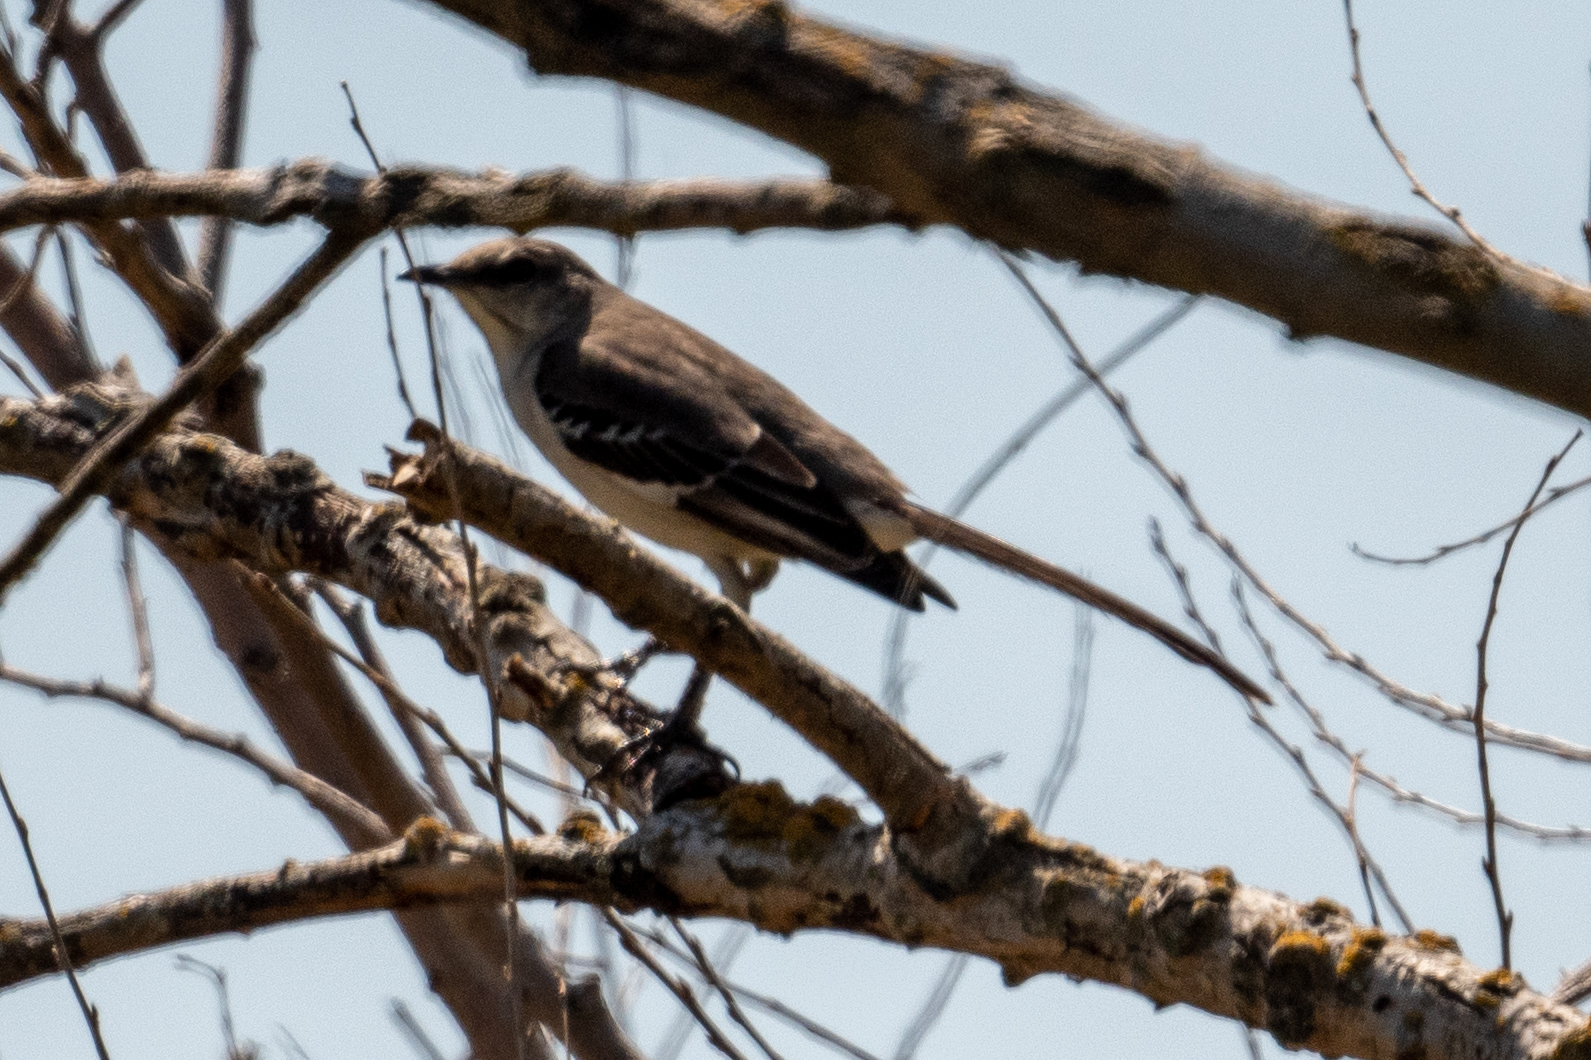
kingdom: Animalia
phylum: Chordata
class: Aves
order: Passeriformes
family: Mimidae
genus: Mimus
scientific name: Mimus polyglottos
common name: Northern mockingbird
